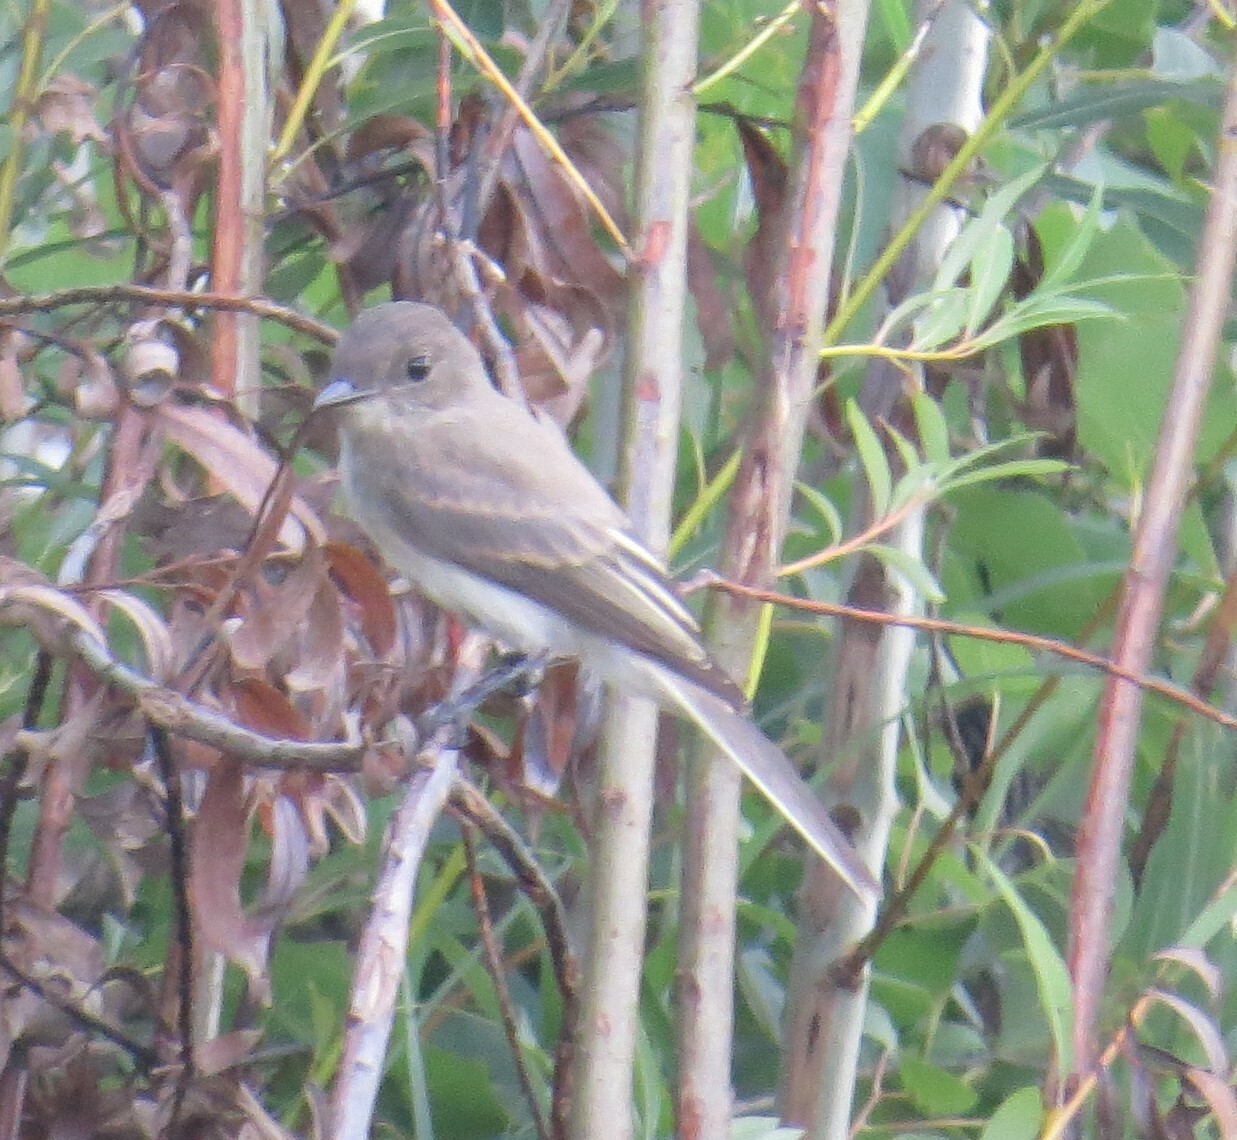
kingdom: Animalia
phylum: Chordata
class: Aves
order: Passeriformes
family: Tyrannidae
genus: Sayornis
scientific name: Sayornis phoebe
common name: Eastern phoebe
